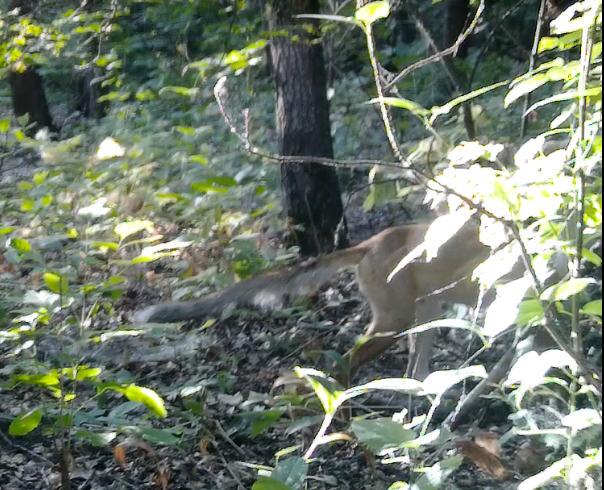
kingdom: Animalia
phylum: Chordata
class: Mammalia
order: Carnivora
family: Canidae
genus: Vulpes
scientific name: Vulpes vulpes
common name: Red fox
